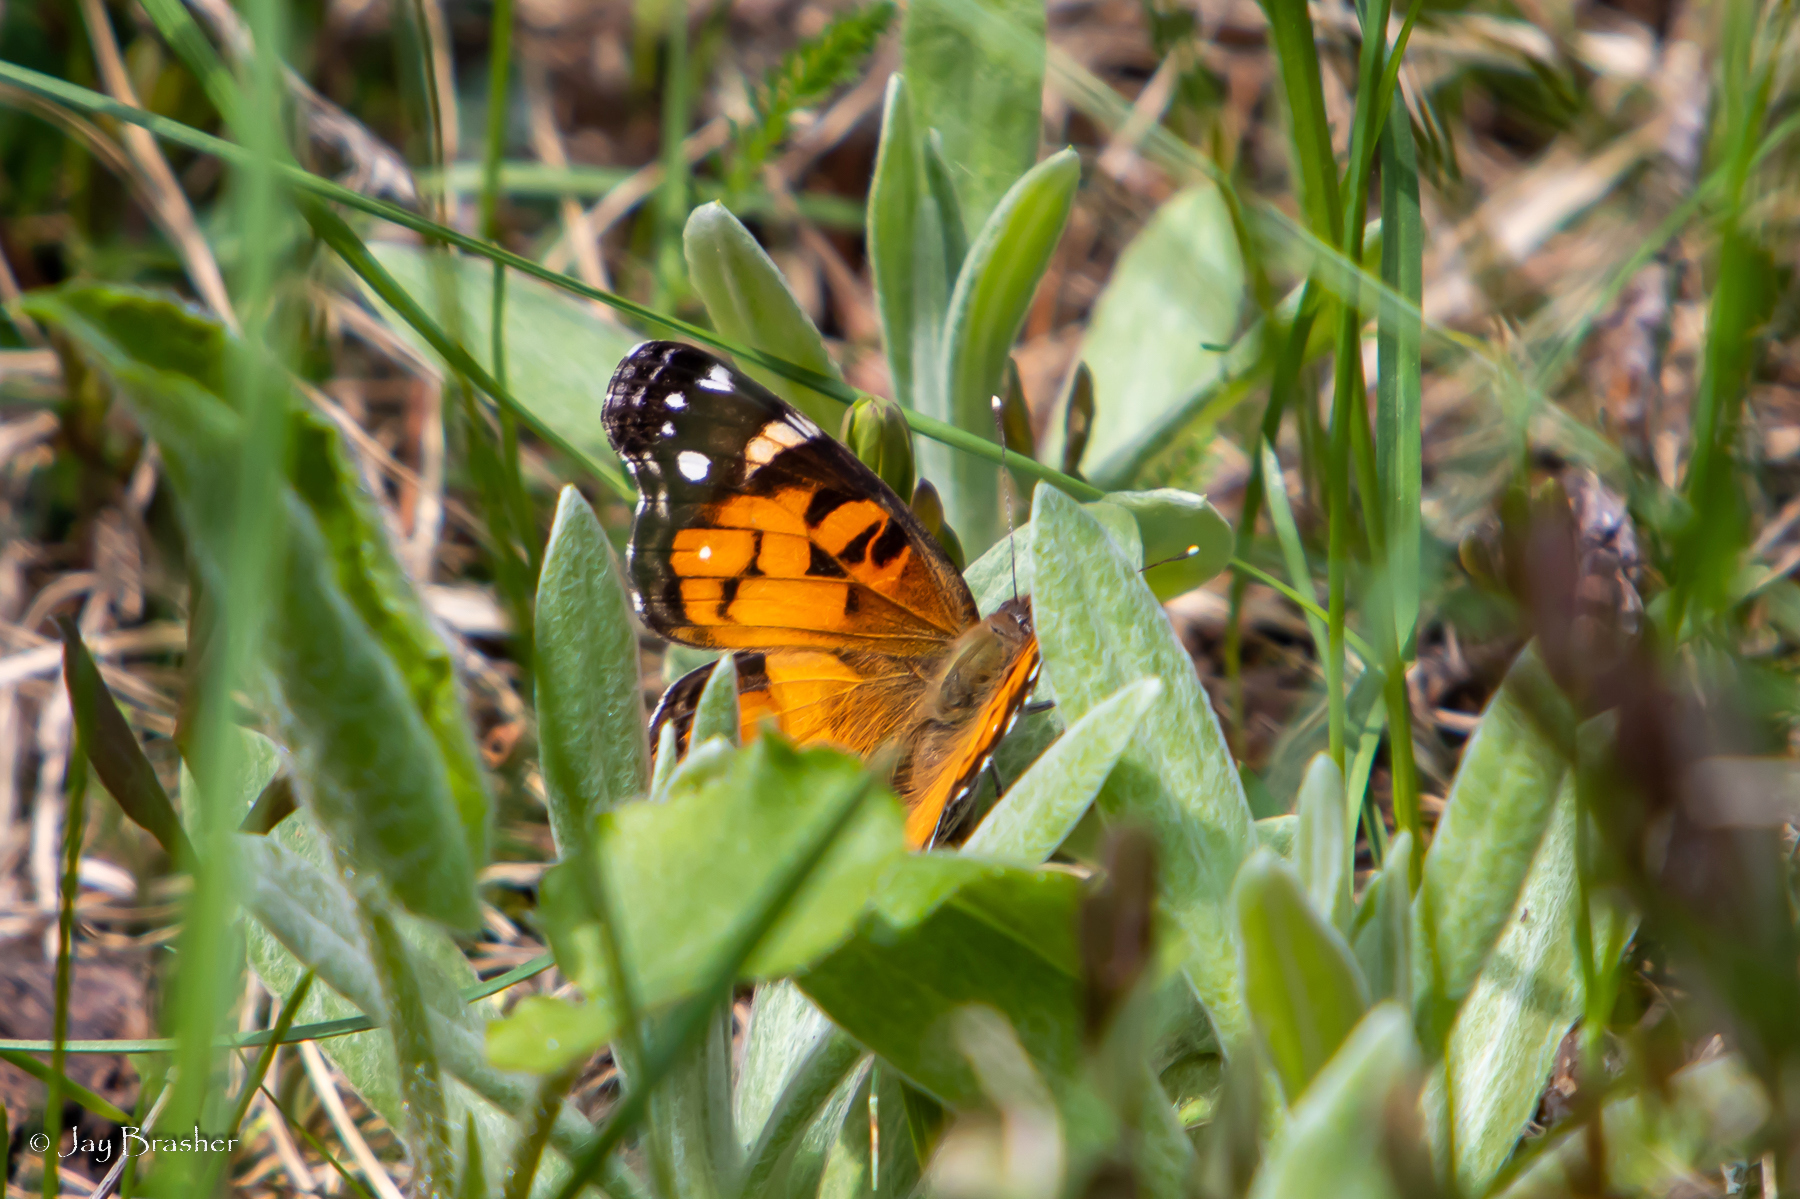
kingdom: Animalia
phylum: Arthropoda
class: Insecta
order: Lepidoptera
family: Nymphalidae
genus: Vanessa
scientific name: Vanessa virginiensis
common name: American lady
